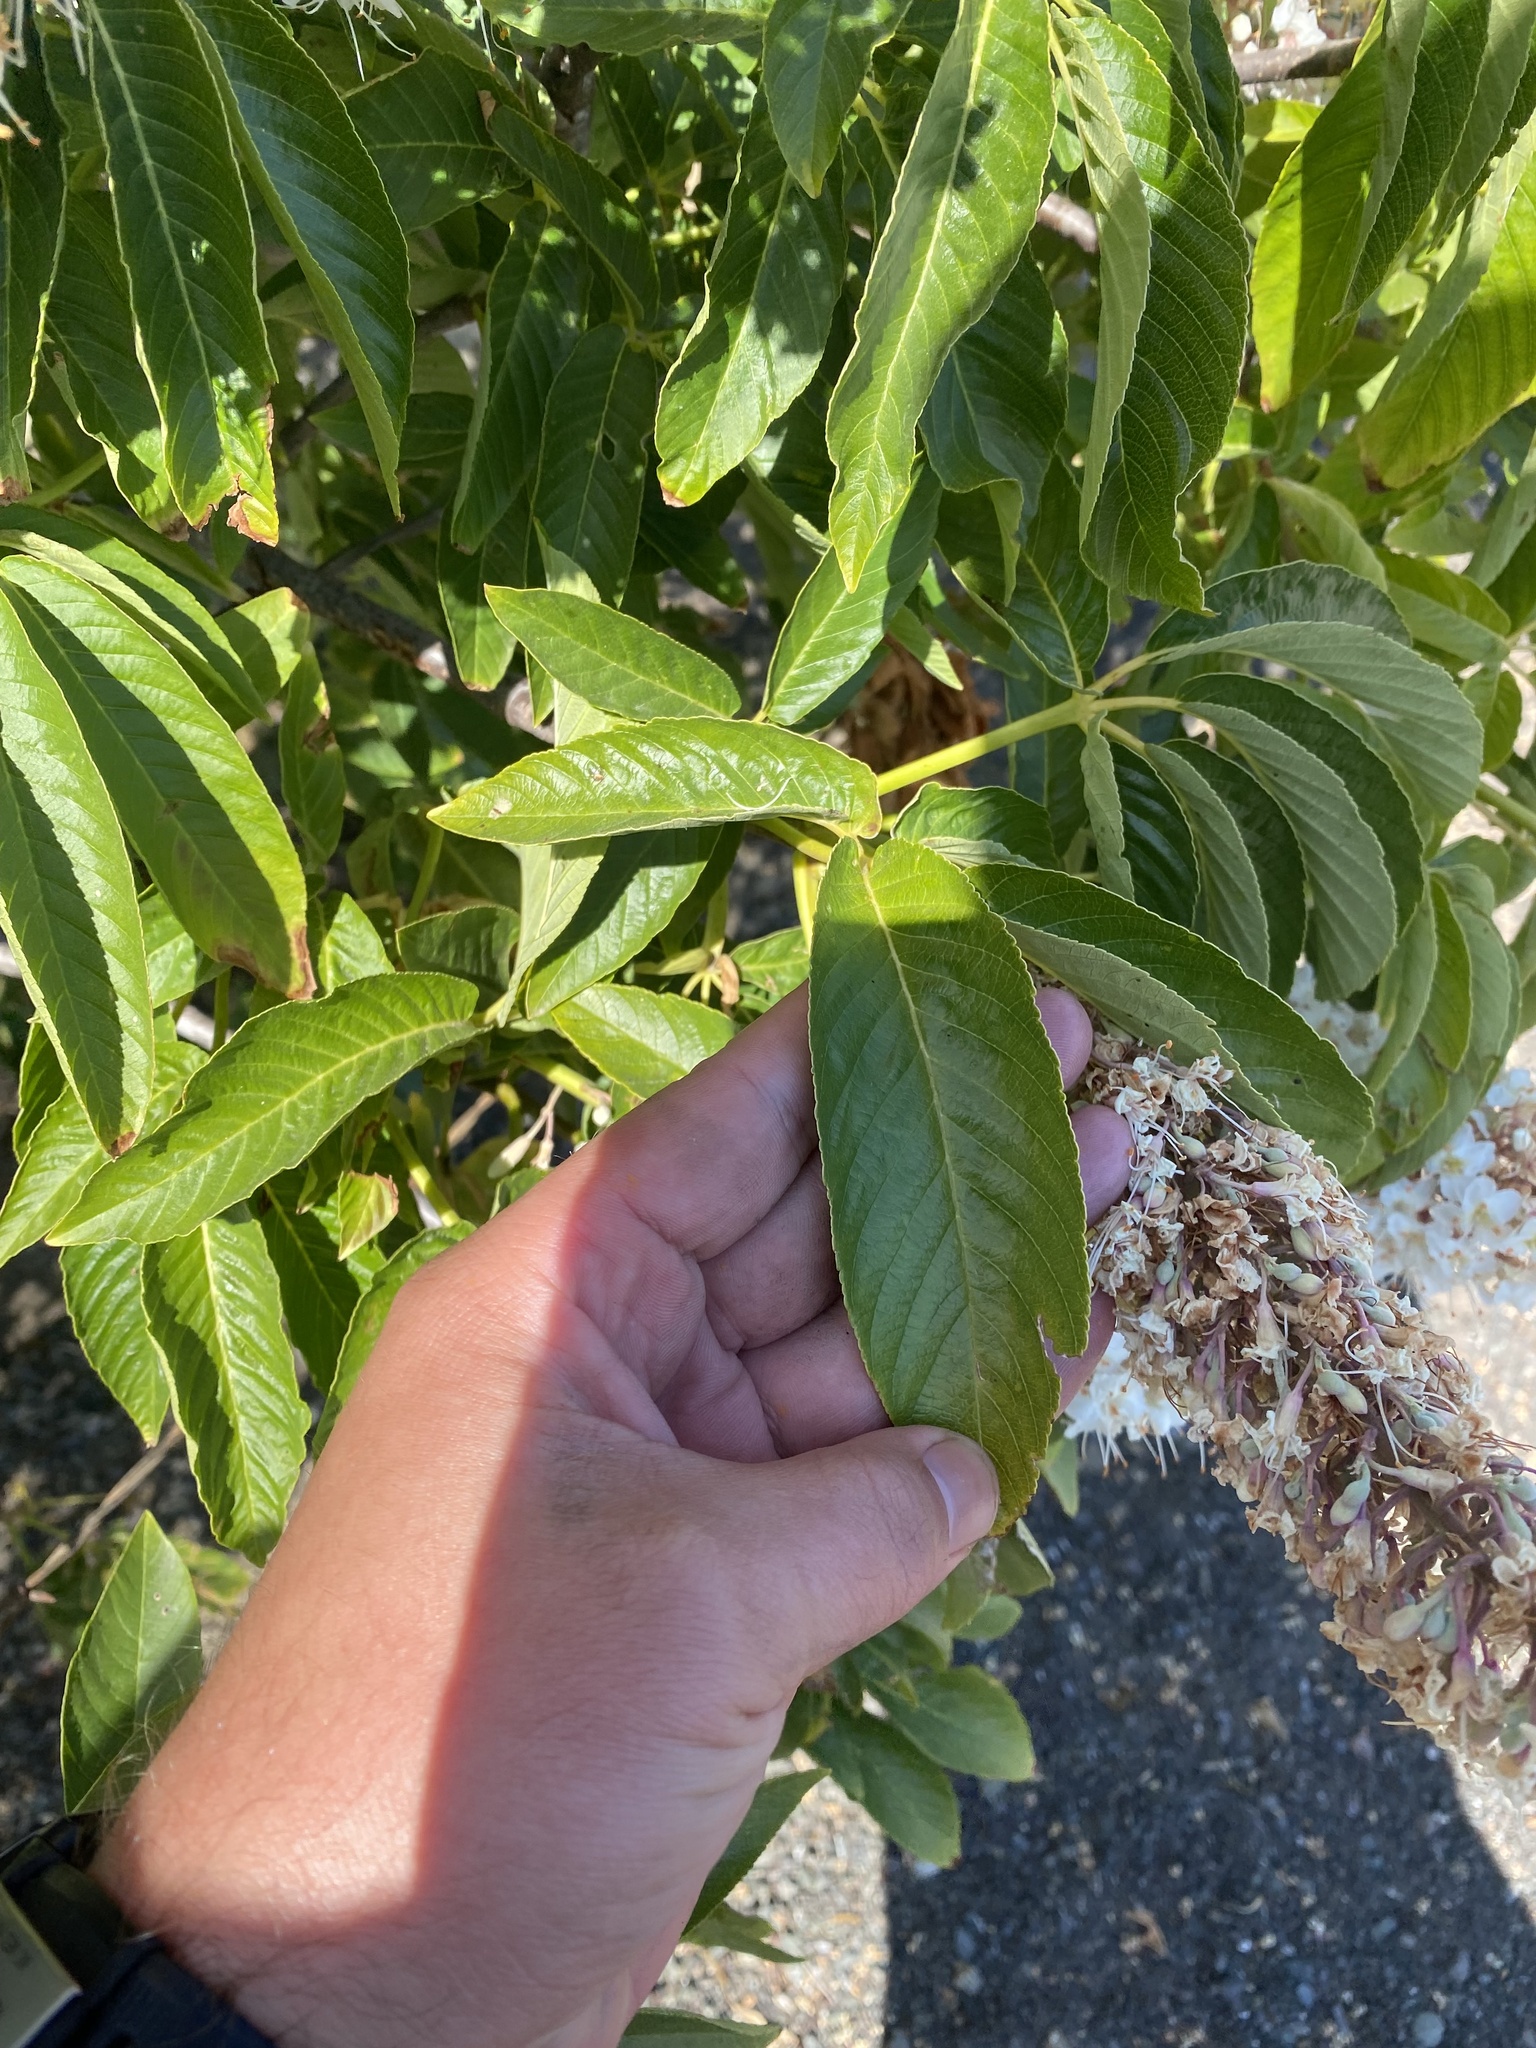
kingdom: Plantae
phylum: Tracheophyta
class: Magnoliopsida
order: Sapindales
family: Sapindaceae
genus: Aesculus
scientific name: Aesculus californica
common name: California buckeye
